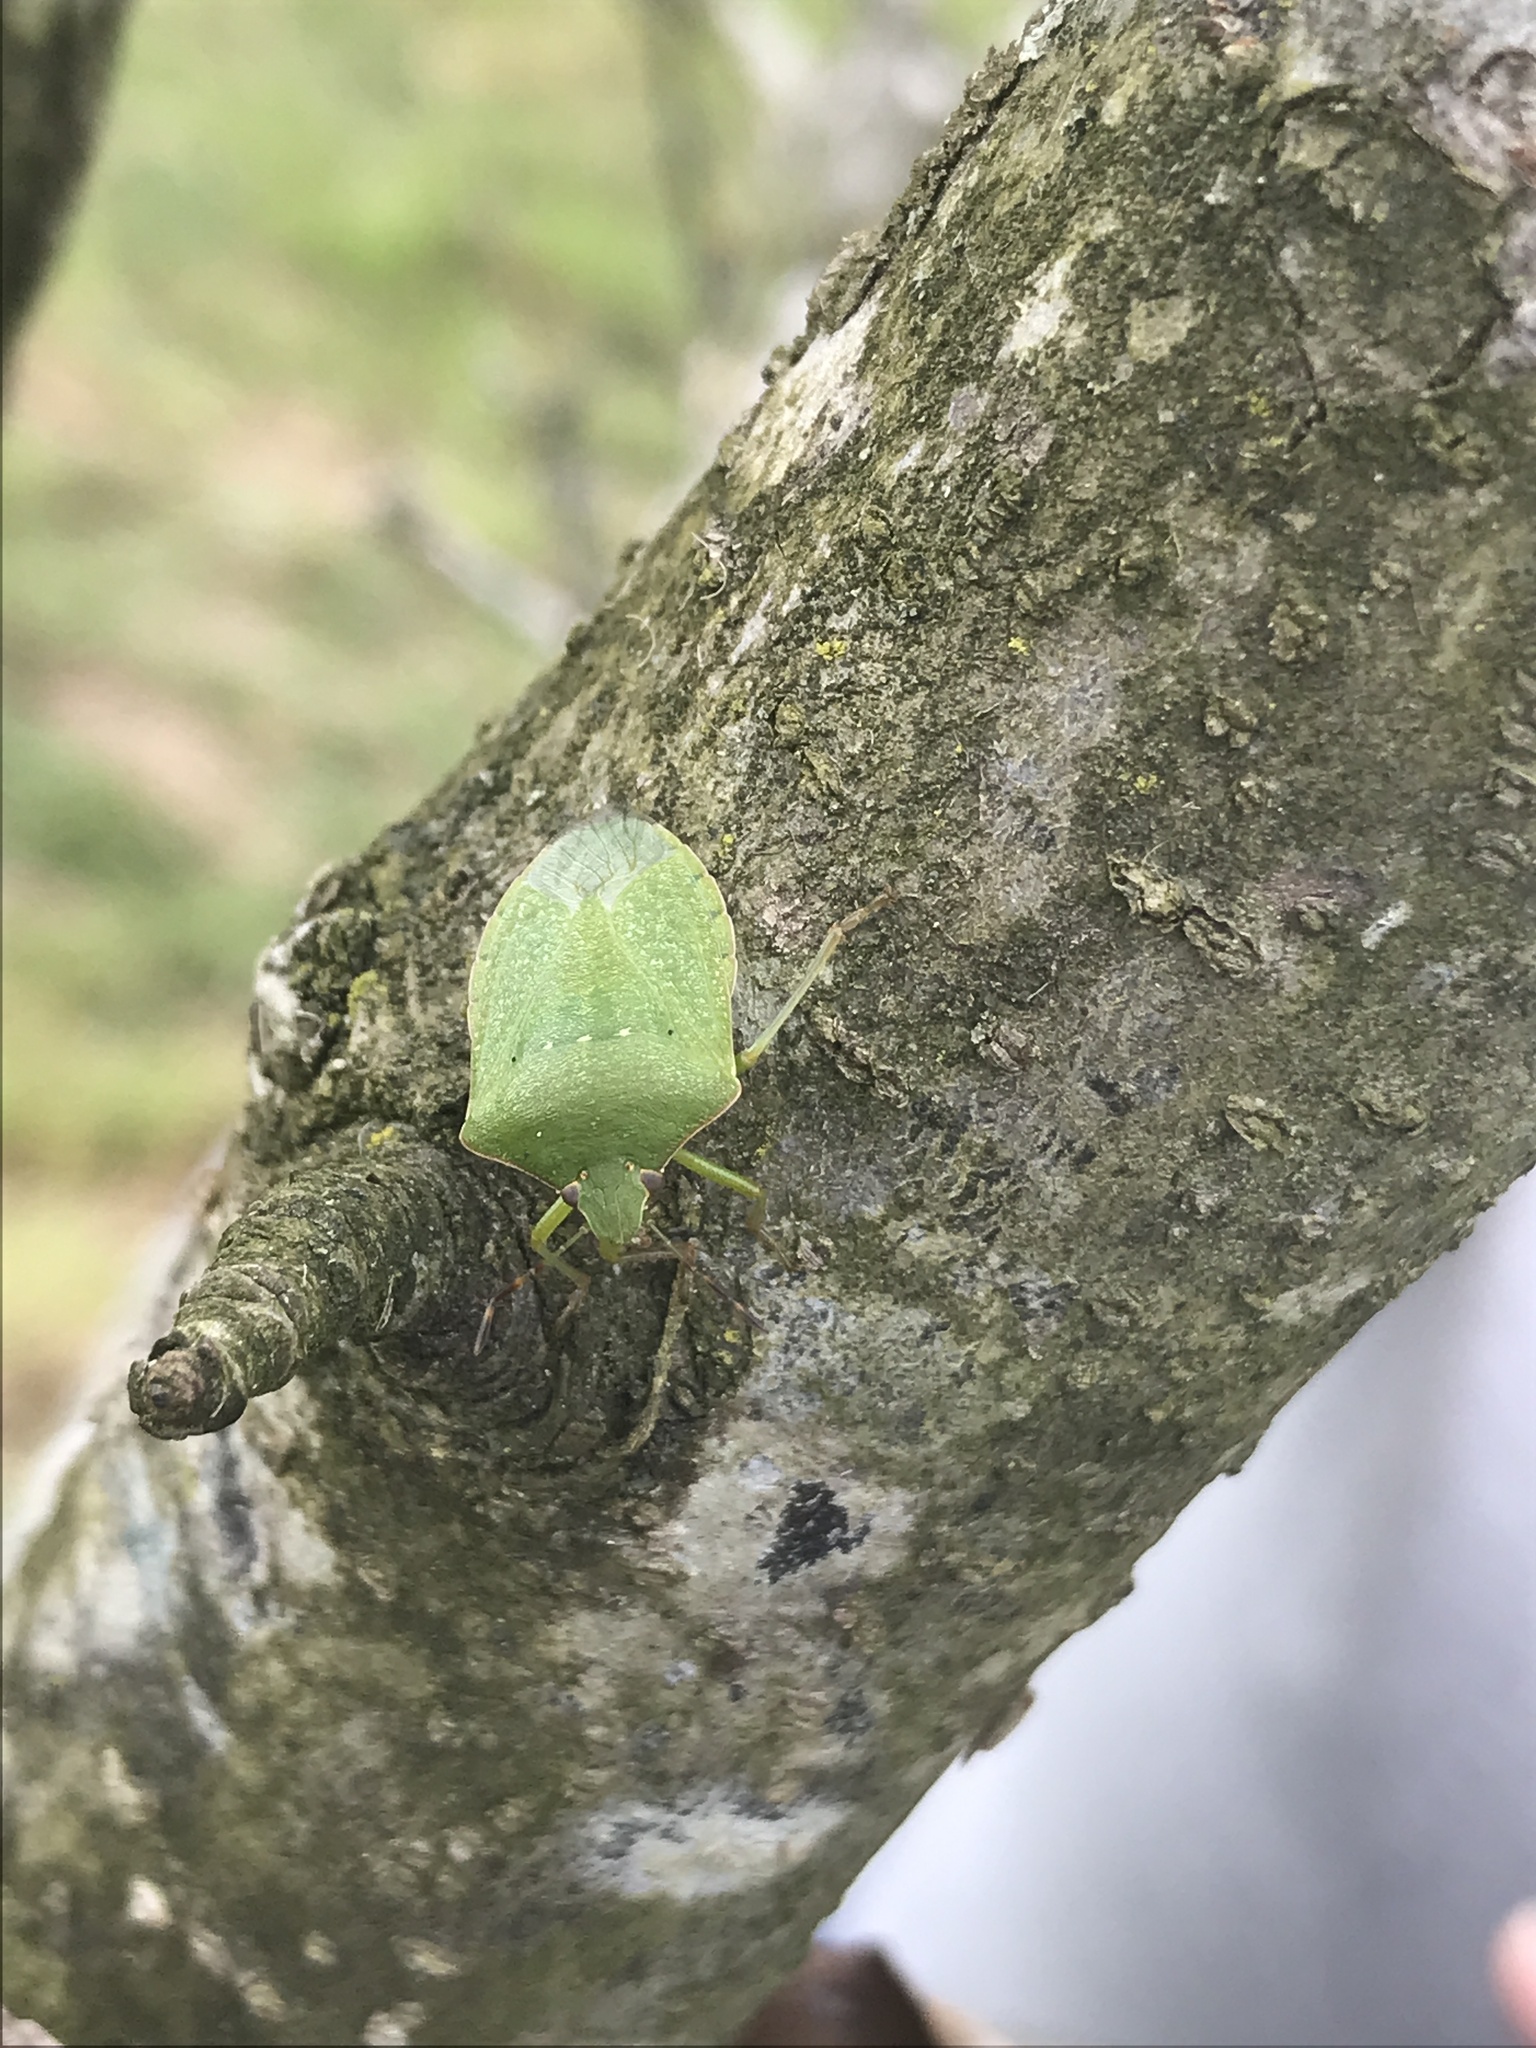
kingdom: Animalia
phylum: Arthropoda
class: Insecta
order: Hemiptera
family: Pentatomidae
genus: Nezara
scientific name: Nezara viridula
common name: Southern green stink bug
